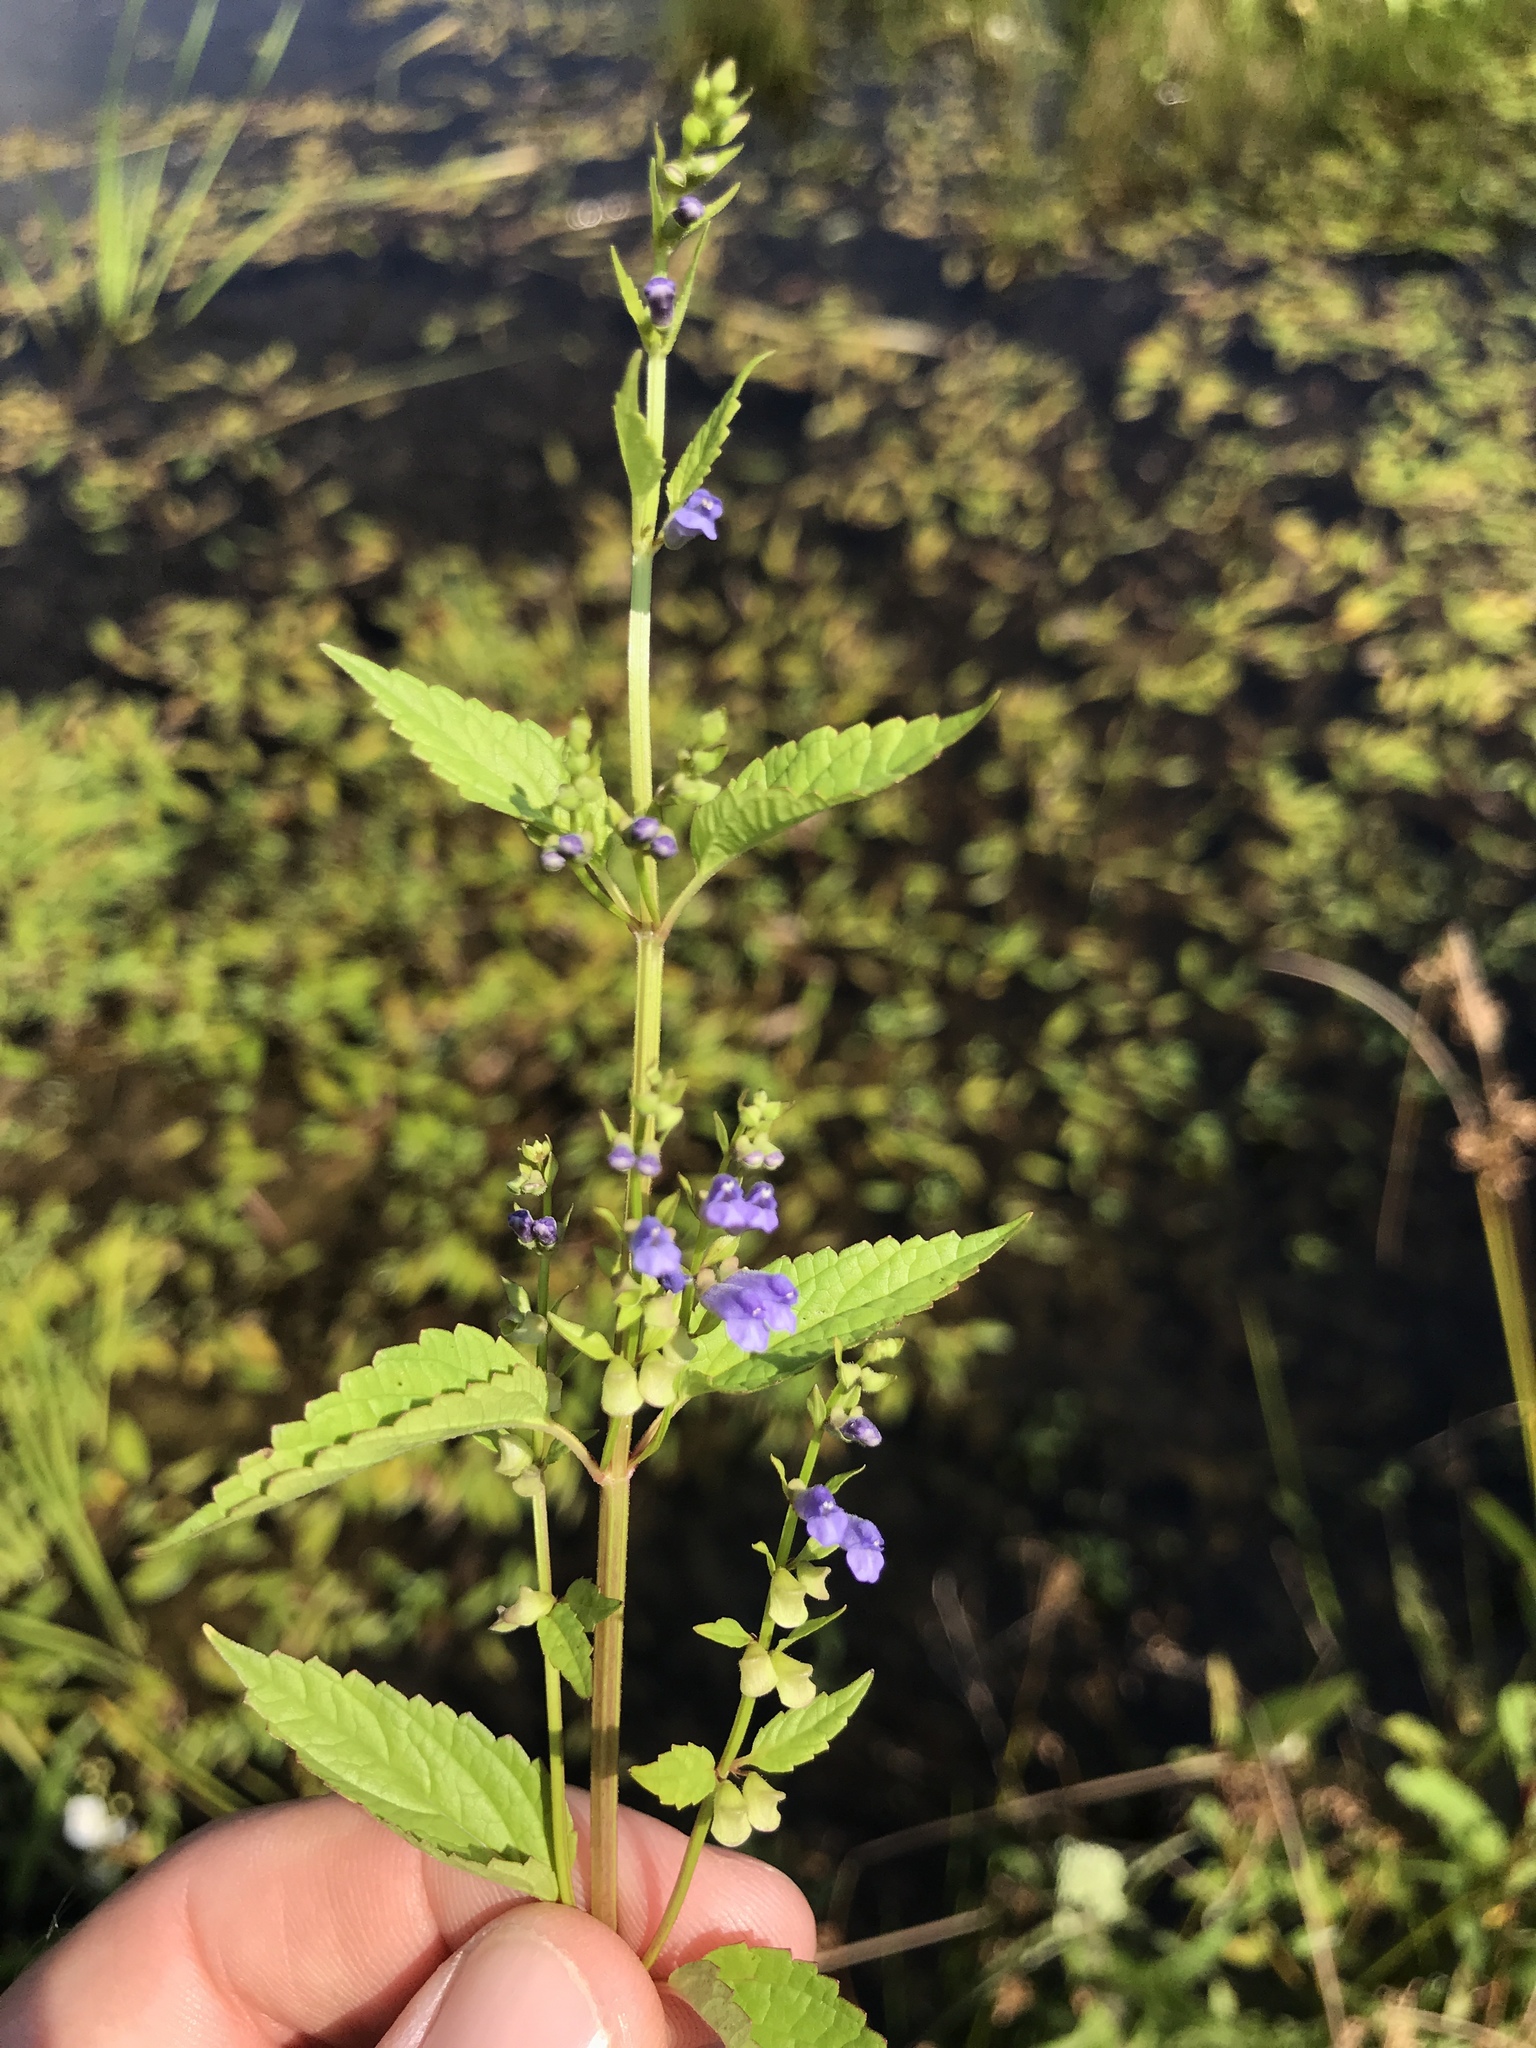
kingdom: Plantae
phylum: Tracheophyta
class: Magnoliopsida
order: Lamiales
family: Lamiaceae
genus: Scutellaria
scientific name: Scutellaria lateriflora
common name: Blue skullcap
